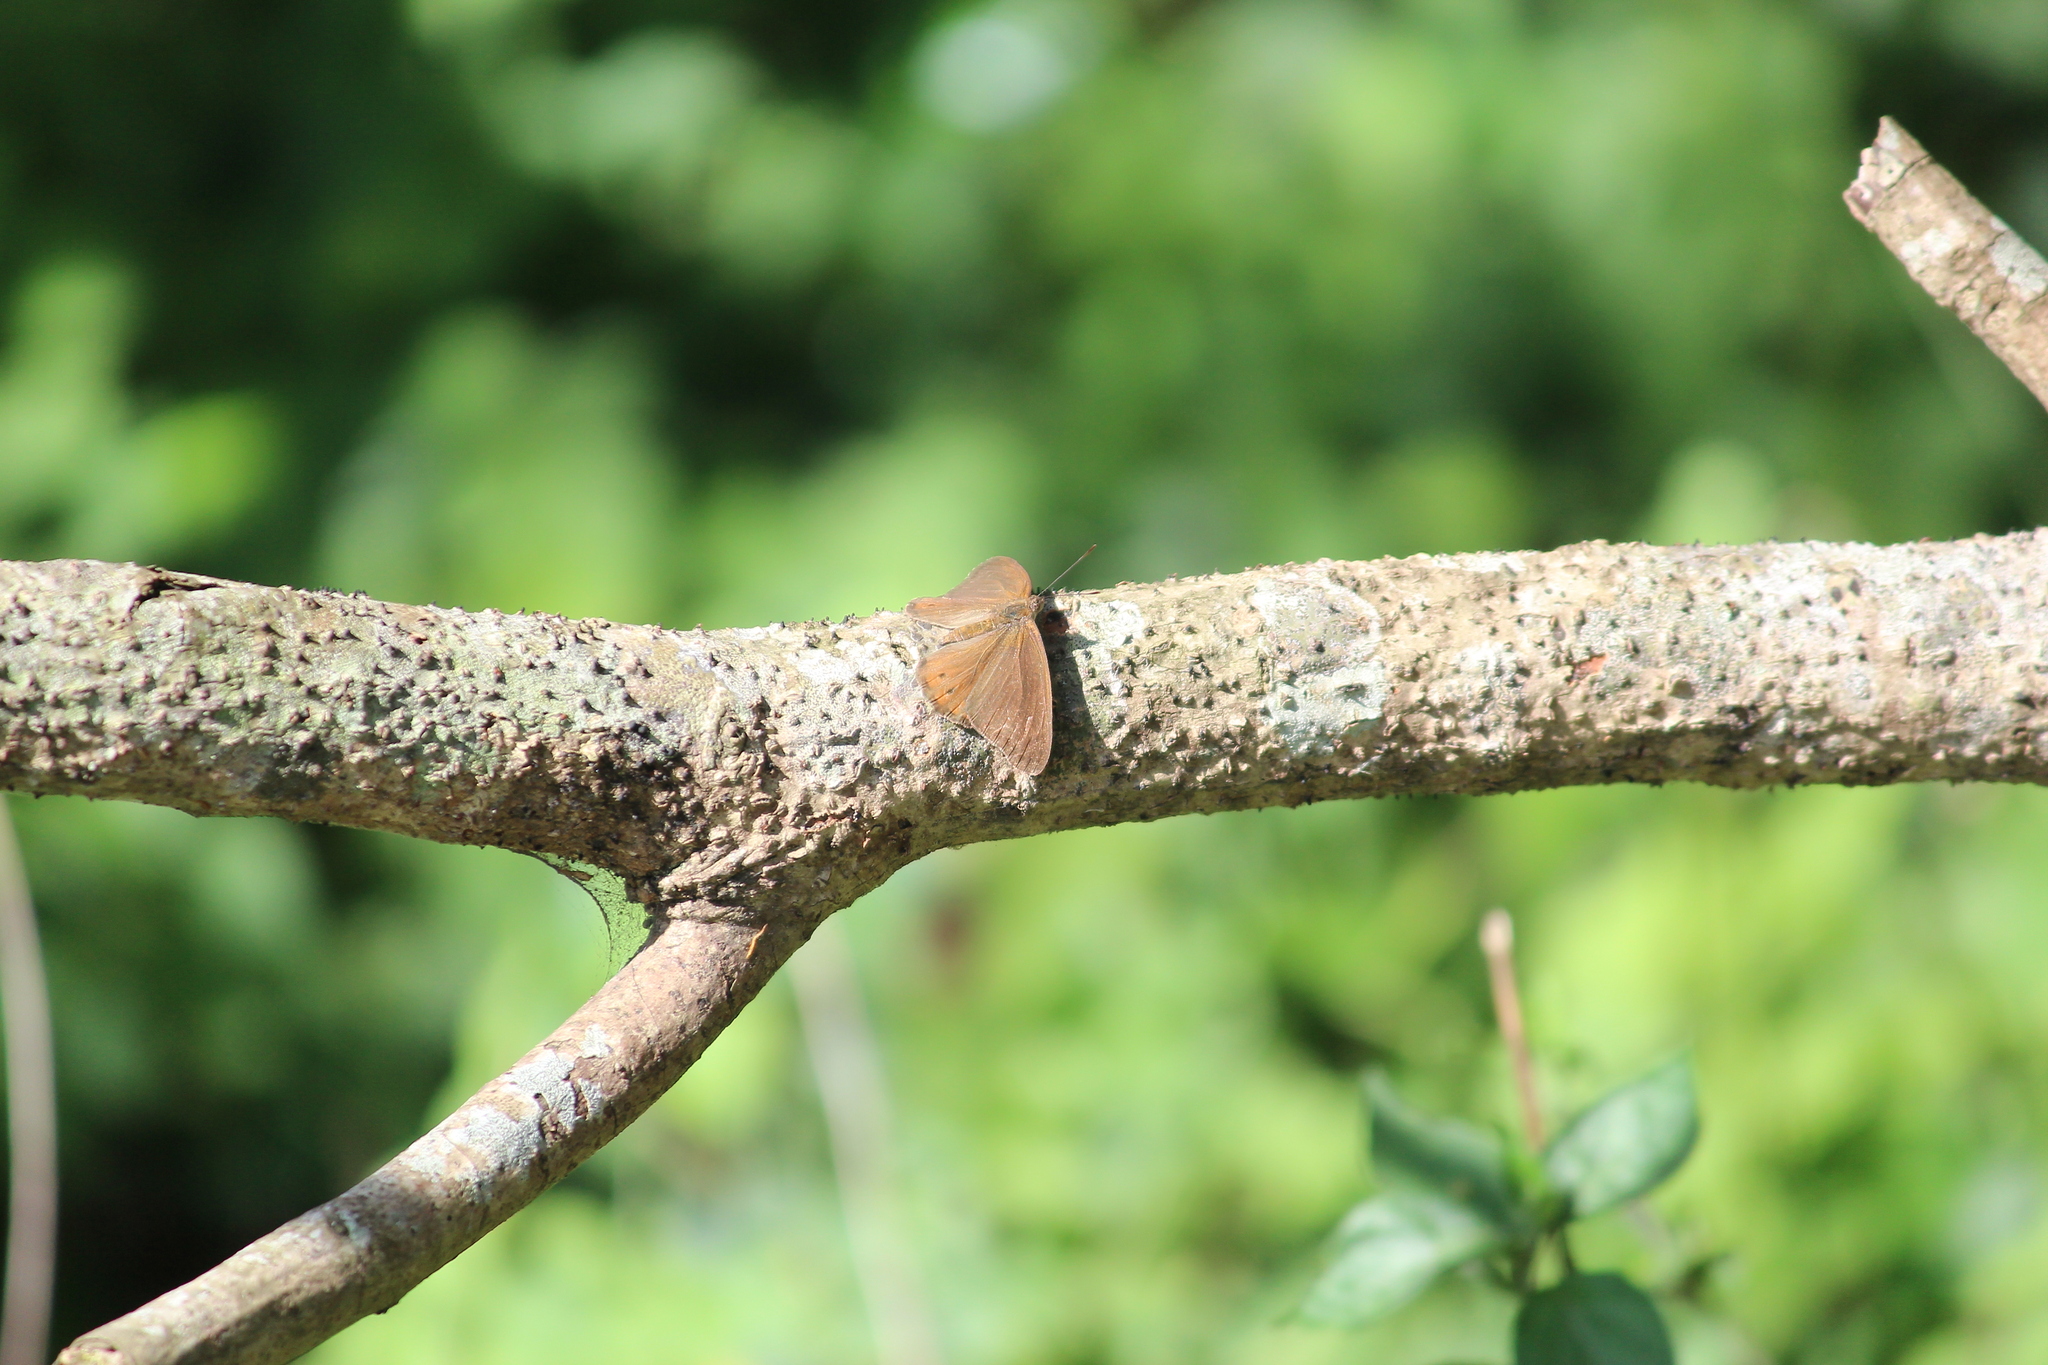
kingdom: Animalia
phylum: Arthropoda
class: Insecta
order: Lepidoptera
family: Nymphalidae
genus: Asterope
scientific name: Asterope boisduvali
